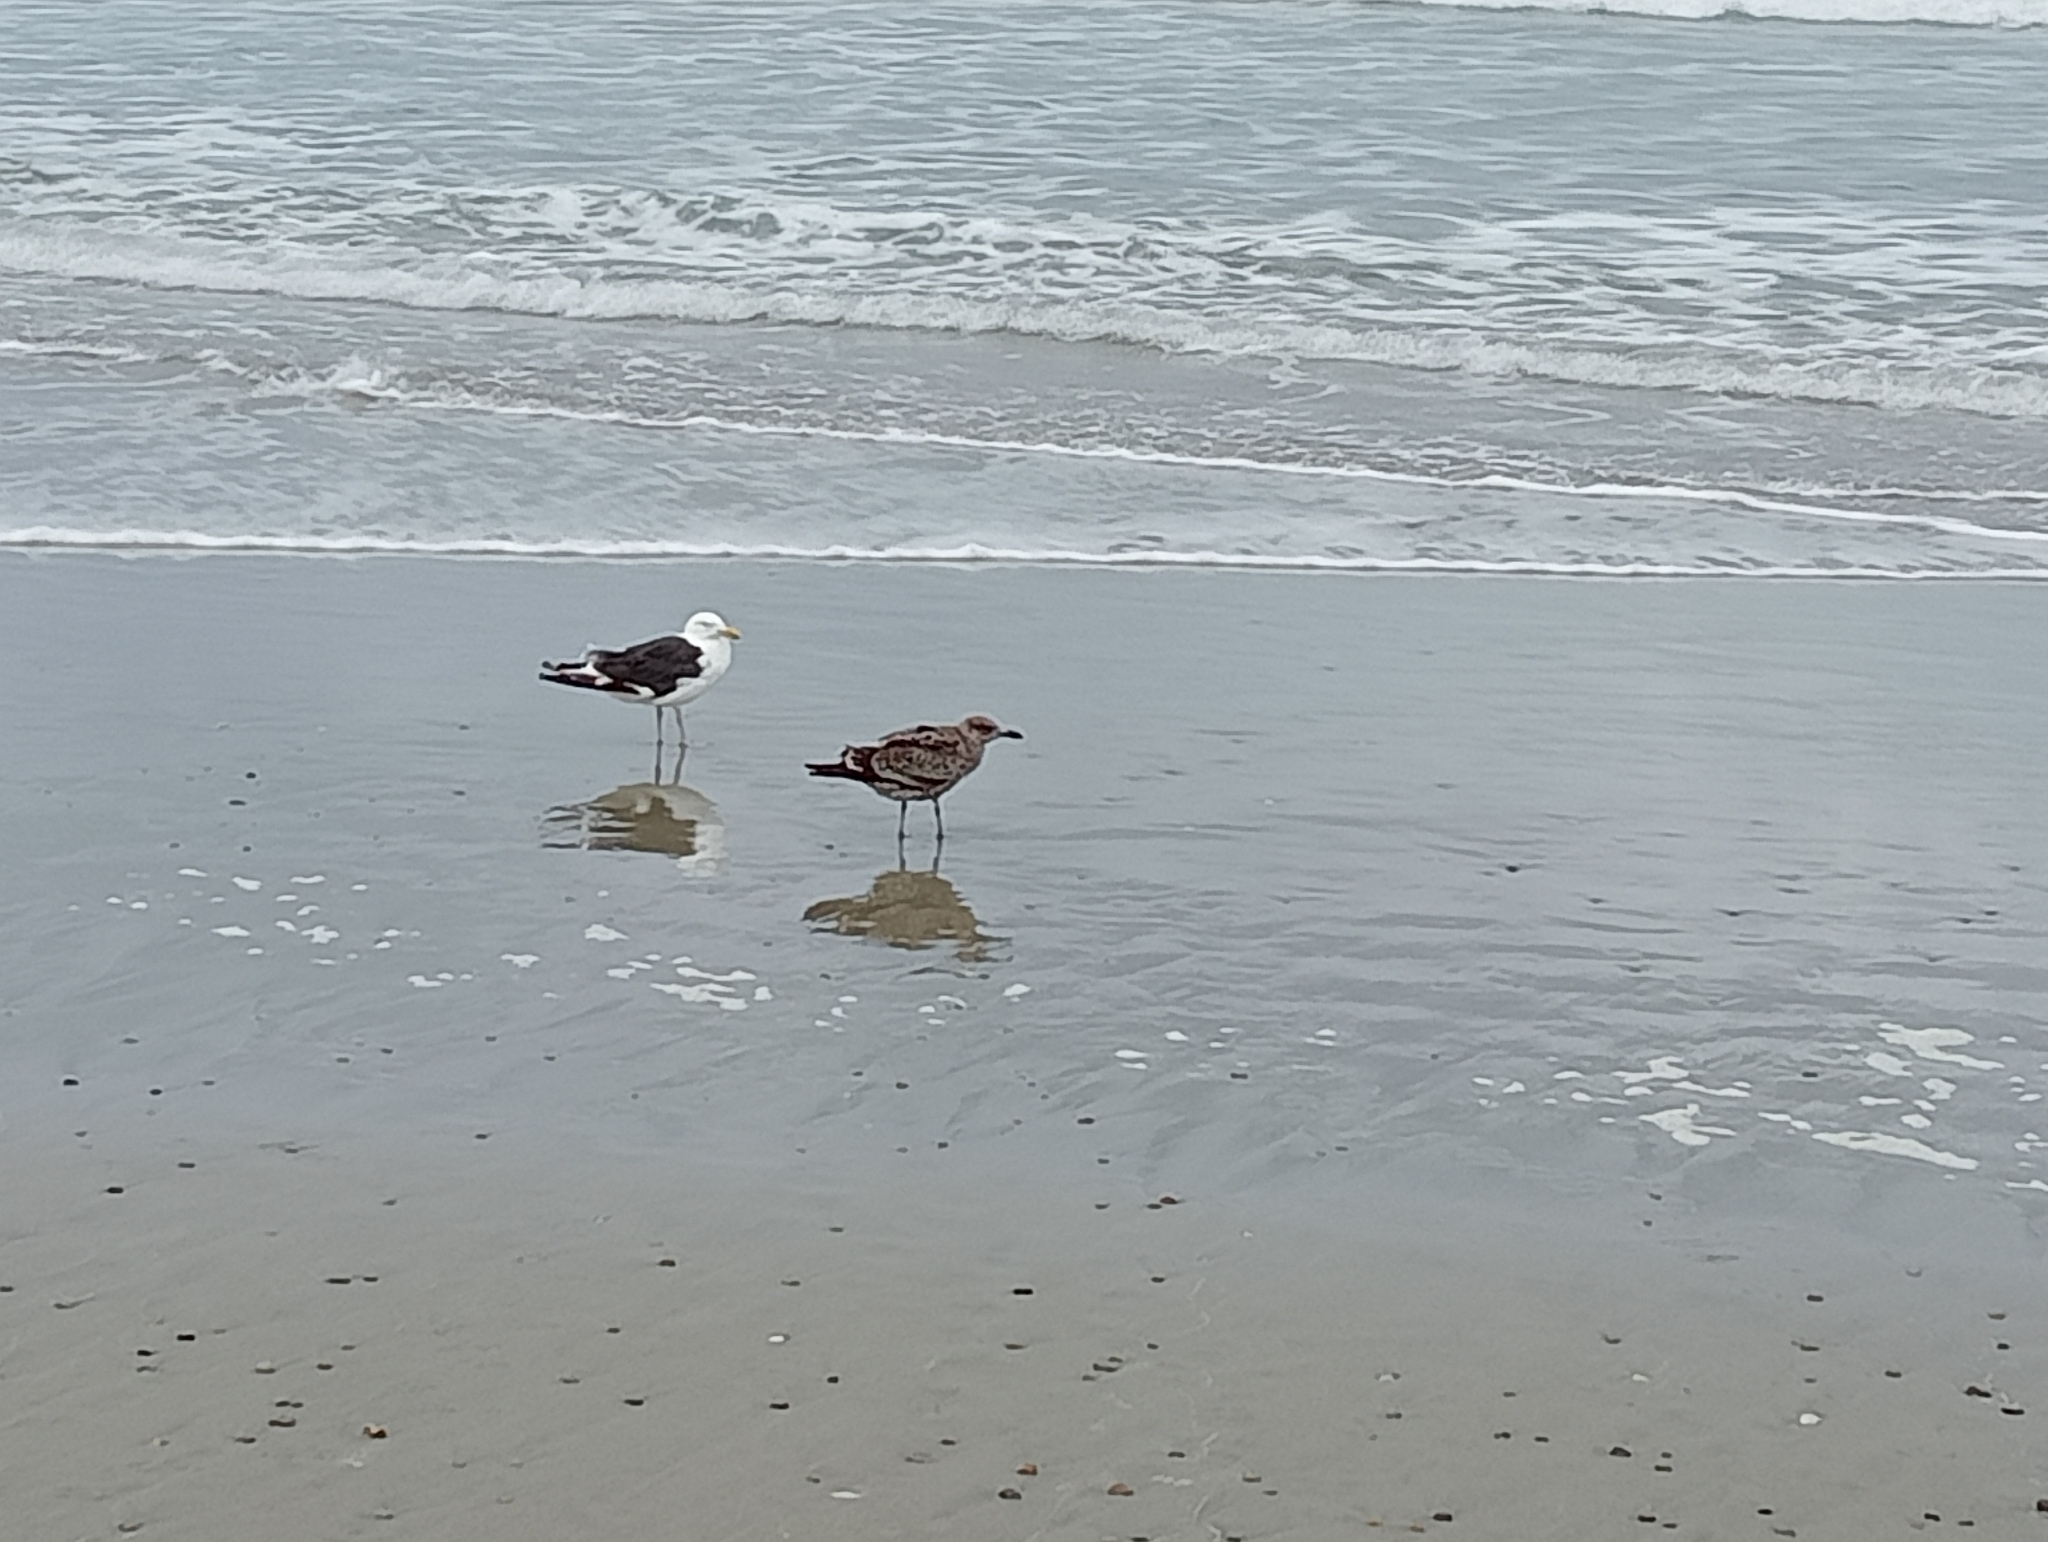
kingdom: Animalia
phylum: Chordata
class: Aves
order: Charadriiformes
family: Laridae
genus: Larus
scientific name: Larus dominicanus
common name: Kelp gull
